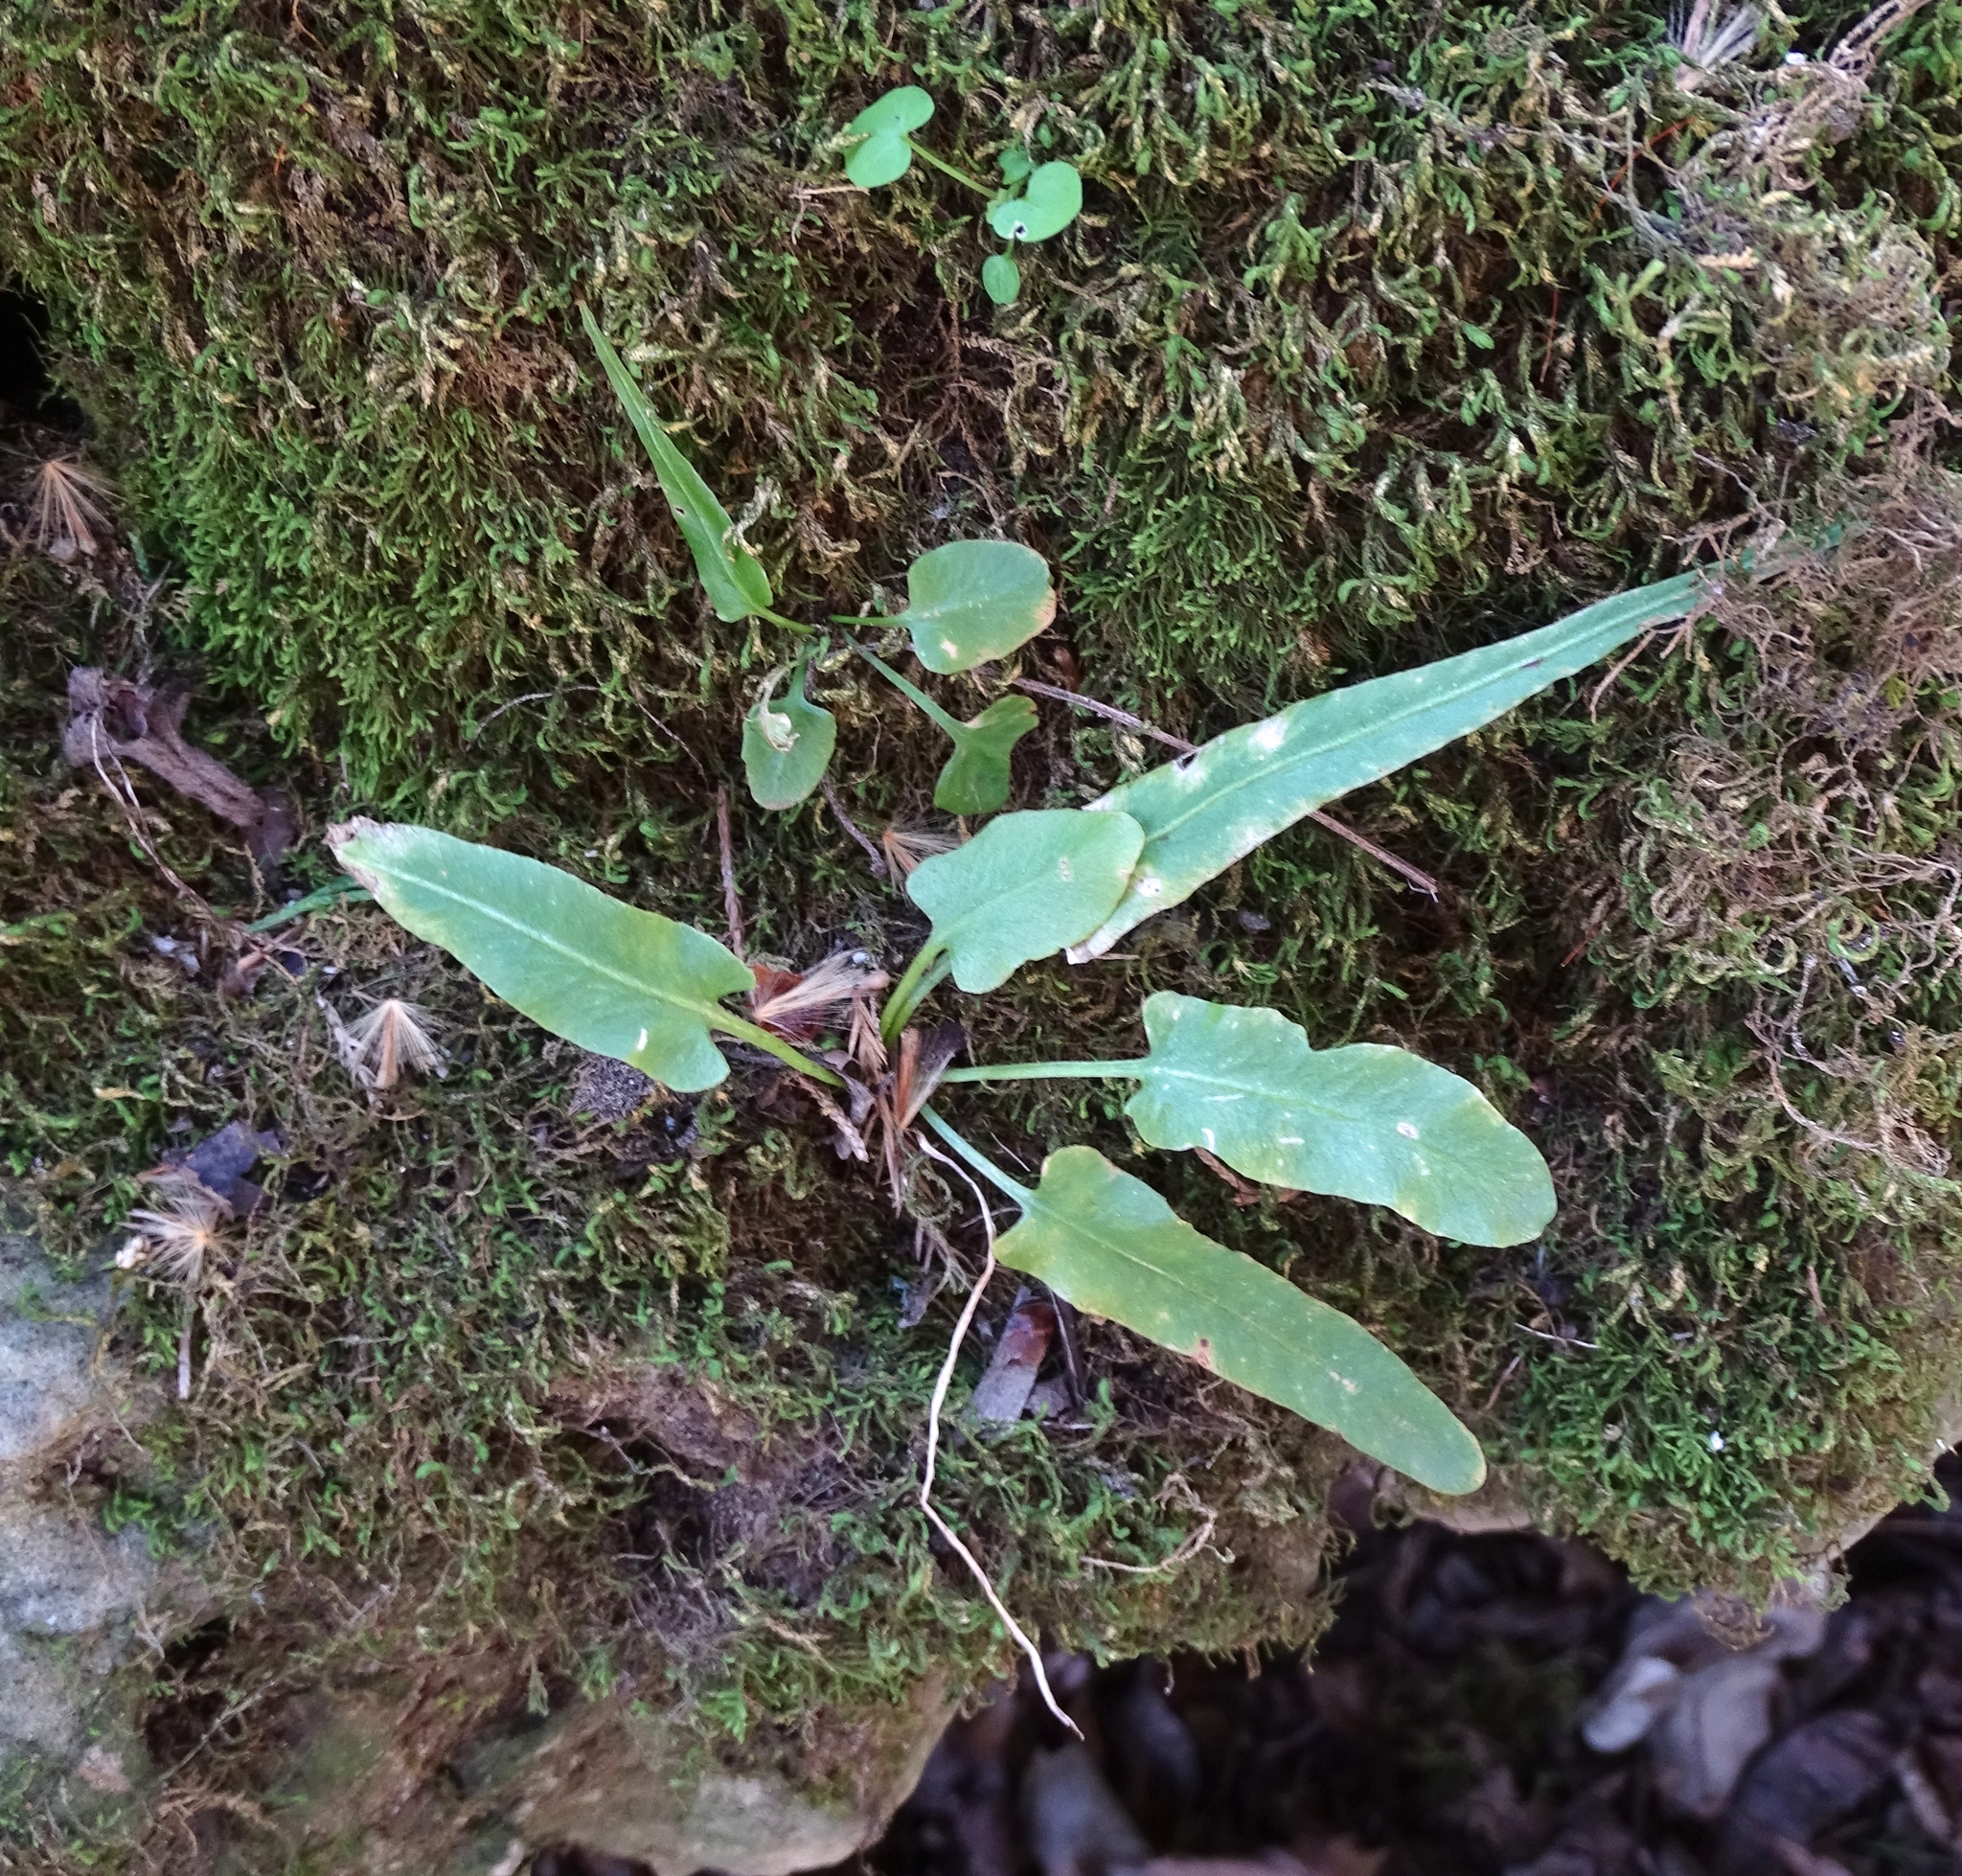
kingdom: Plantae
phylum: Tracheophyta
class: Polypodiopsida
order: Polypodiales
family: Aspleniaceae
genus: Asplenium
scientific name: Asplenium rhizophyllum
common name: Walking fern
